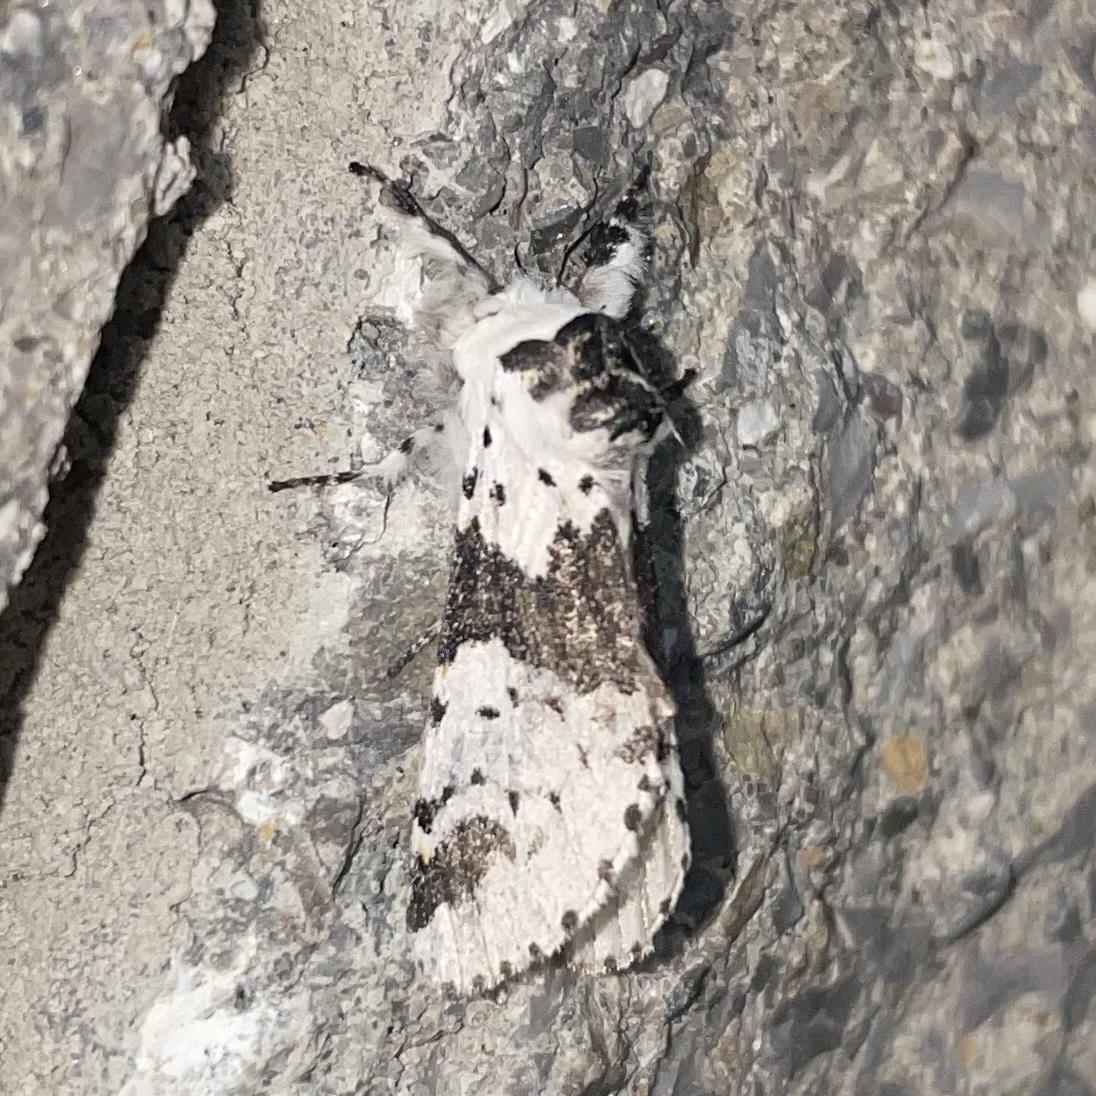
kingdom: Animalia
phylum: Arthropoda
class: Insecta
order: Lepidoptera
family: Notodontidae
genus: Furcula
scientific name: Furcula borealis
